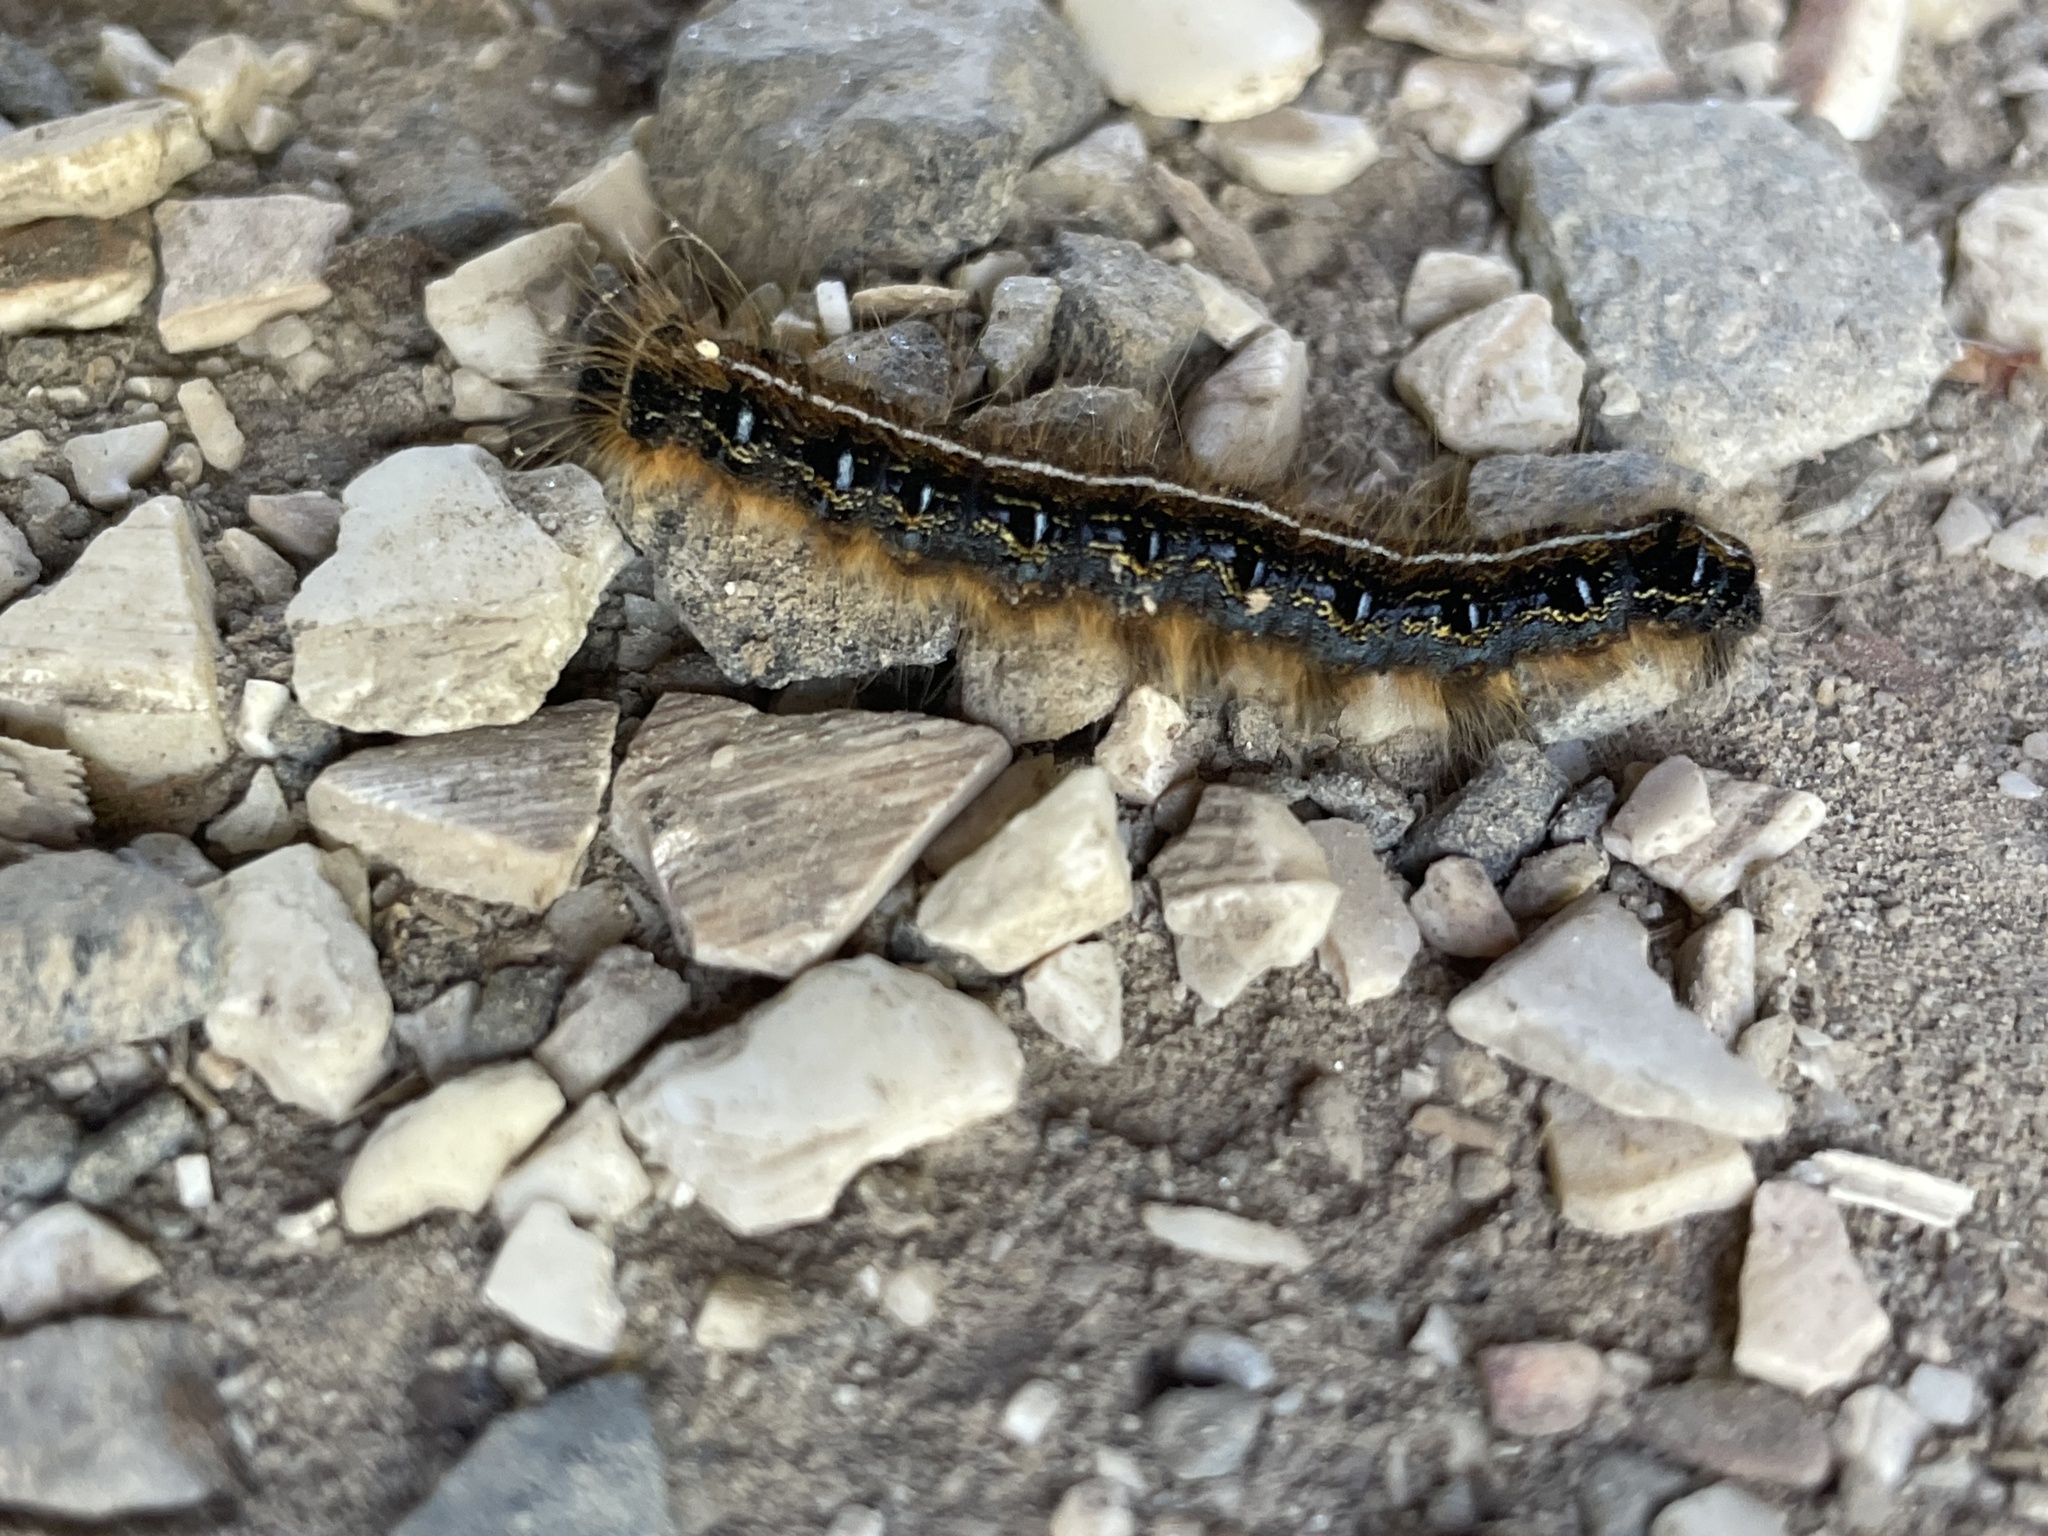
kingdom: Animalia
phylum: Arthropoda
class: Insecta
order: Lepidoptera
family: Lasiocampidae
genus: Malacosoma
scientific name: Malacosoma americana
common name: Eastern tent caterpillar moth
